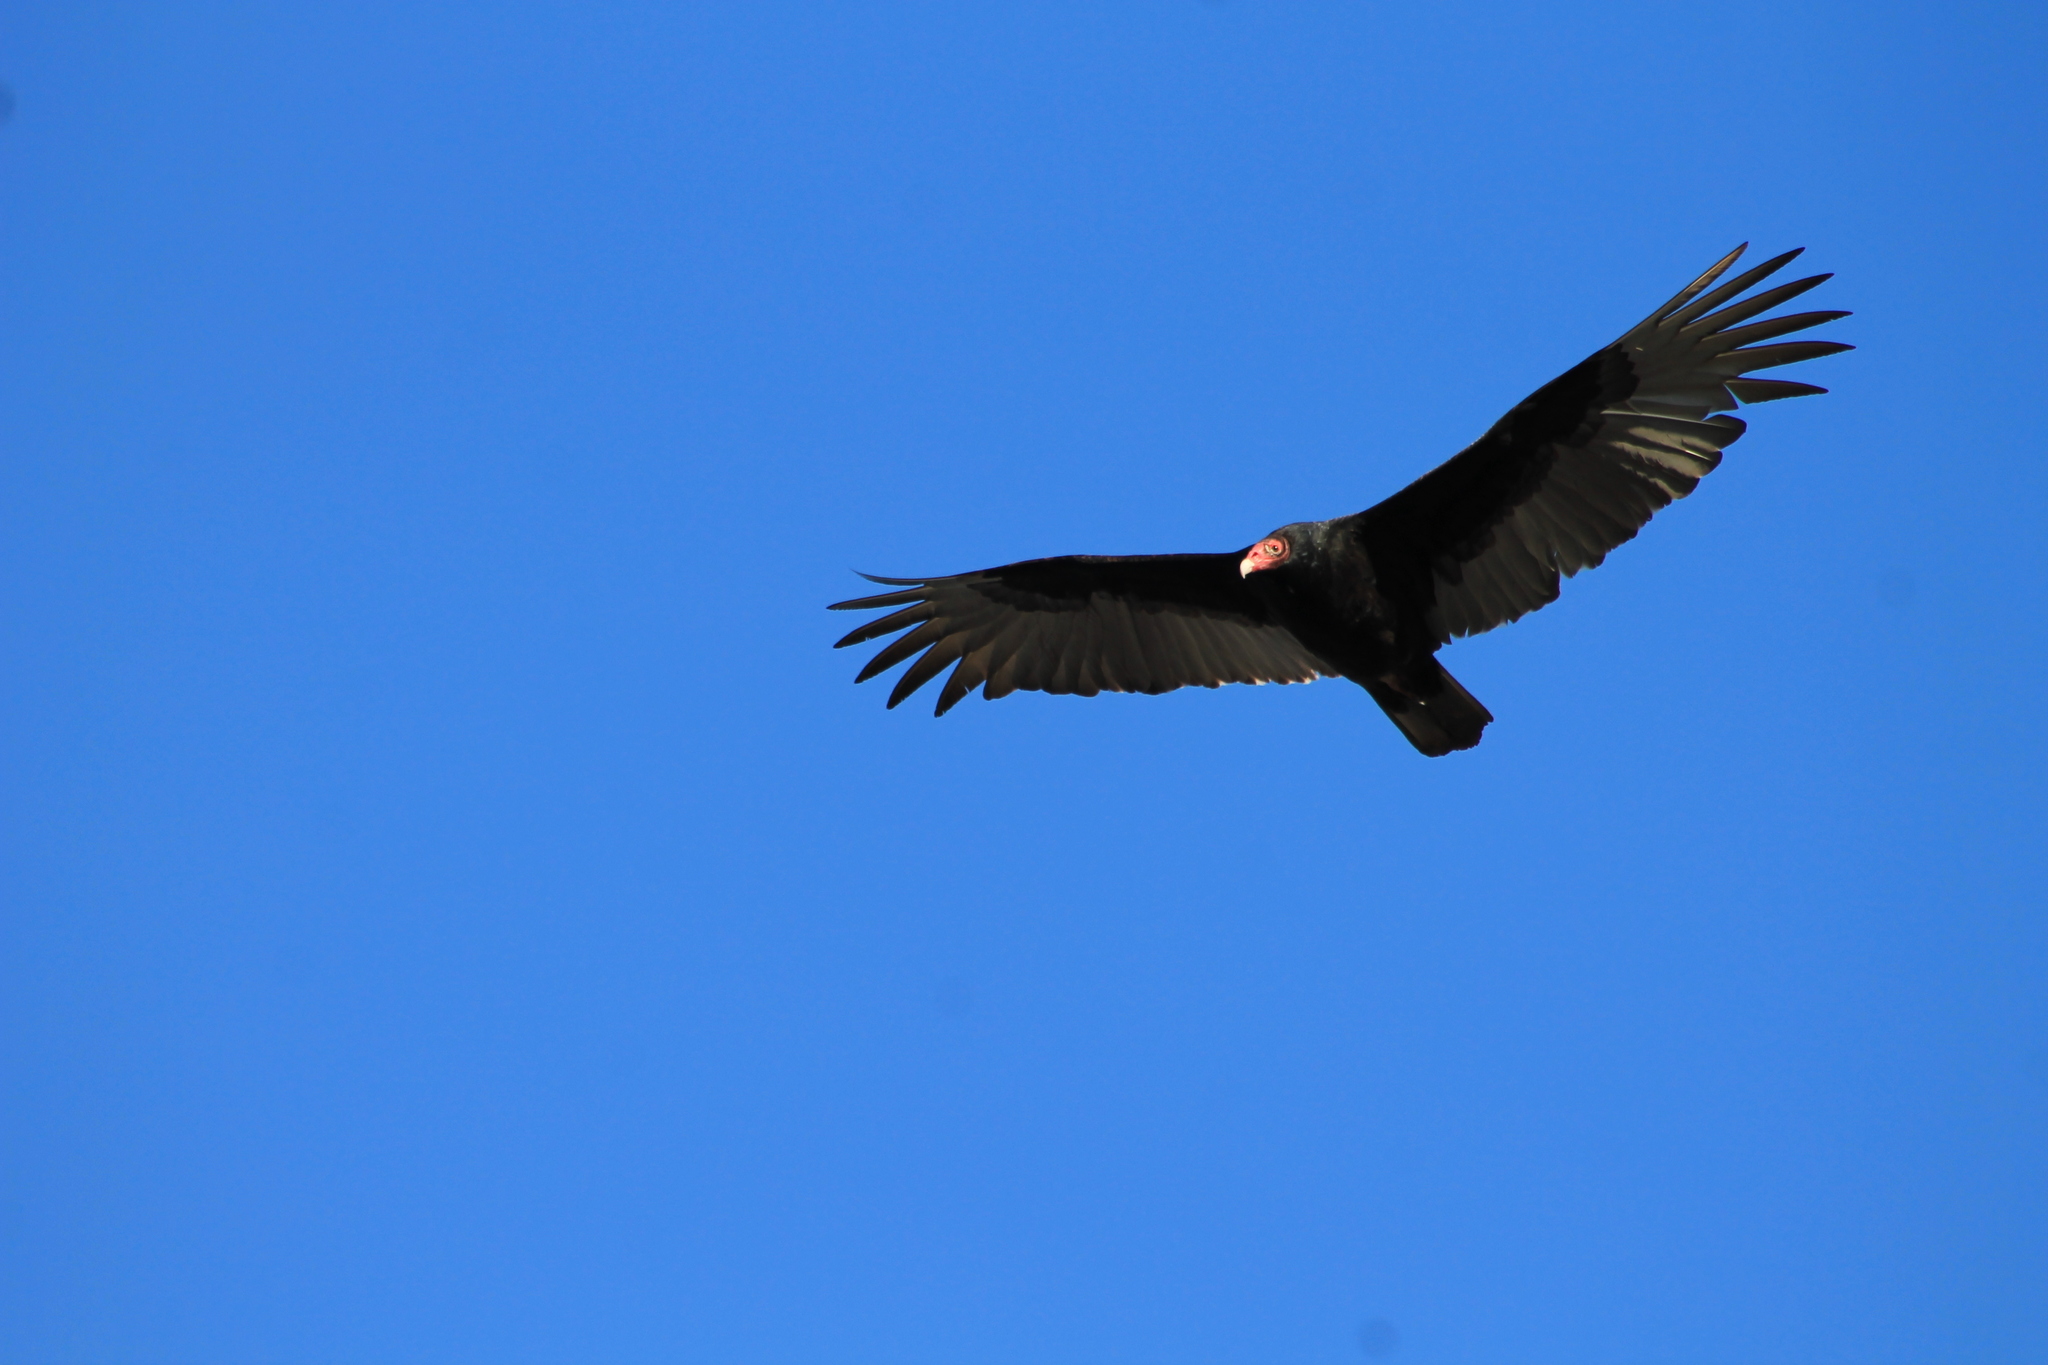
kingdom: Animalia
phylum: Chordata
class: Aves
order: Accipitriformes
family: Cathartidae
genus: Cathartes
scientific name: Cathartes aura
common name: Turkey vulture
